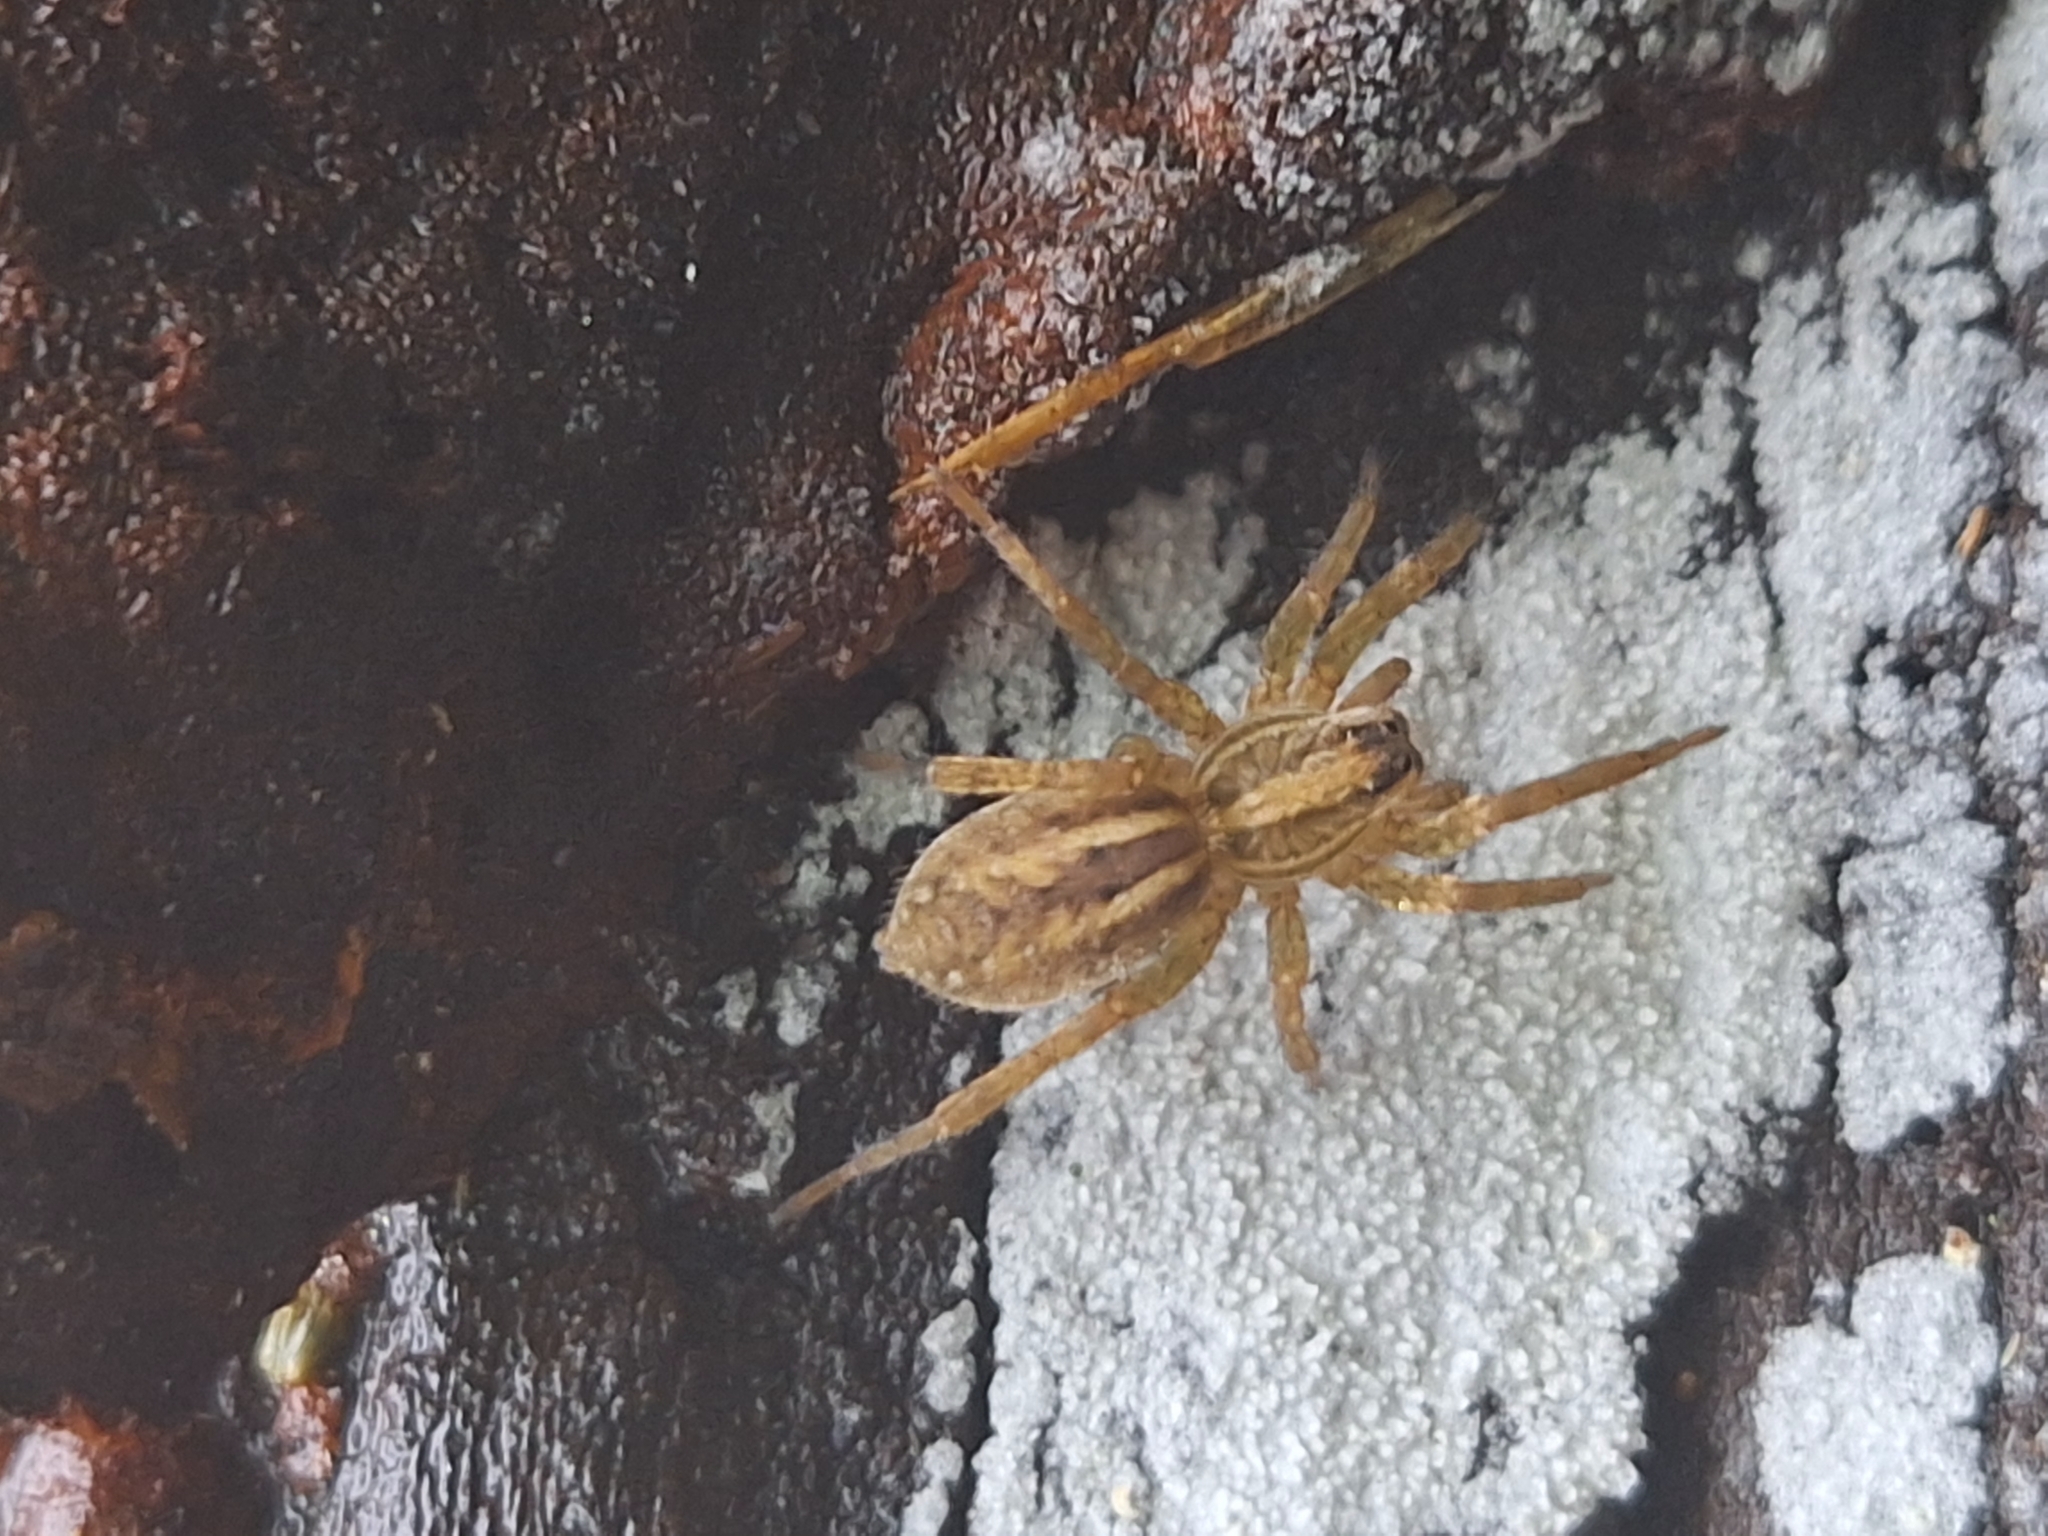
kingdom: Animalia
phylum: Arthropoda
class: Arachnida
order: Araneae
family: Lycosidae
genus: Alopecosa
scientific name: Alopecosa moesta
